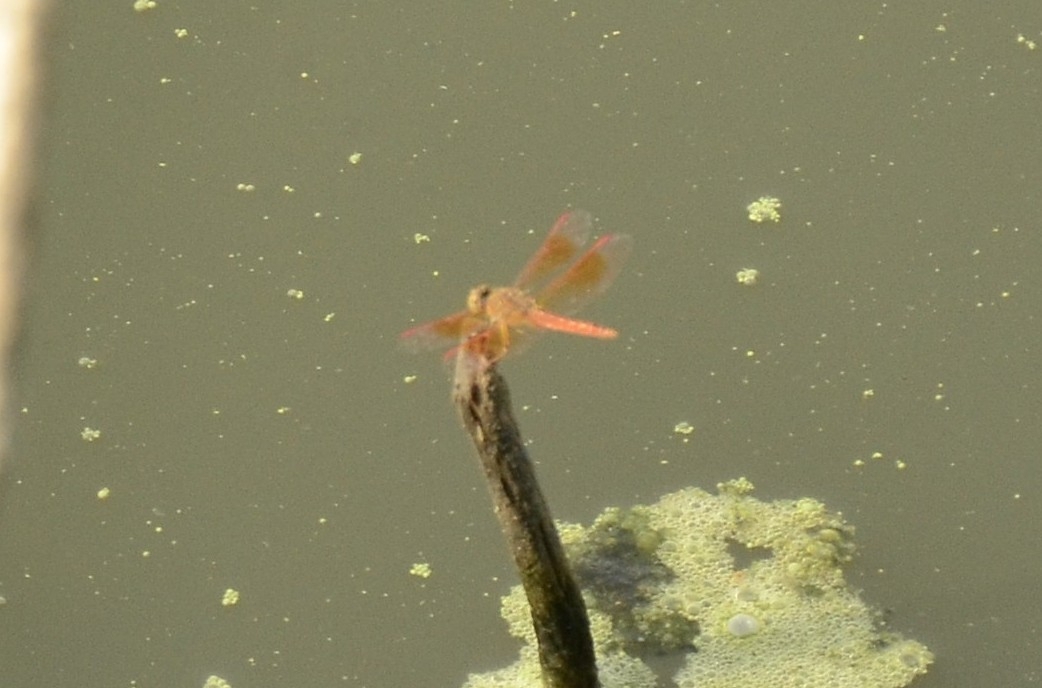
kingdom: Animalia
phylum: Arthropoda
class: Insecta
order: Odonata
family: Libellulidae
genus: Brachythemis
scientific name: Brachythemis contaminata
